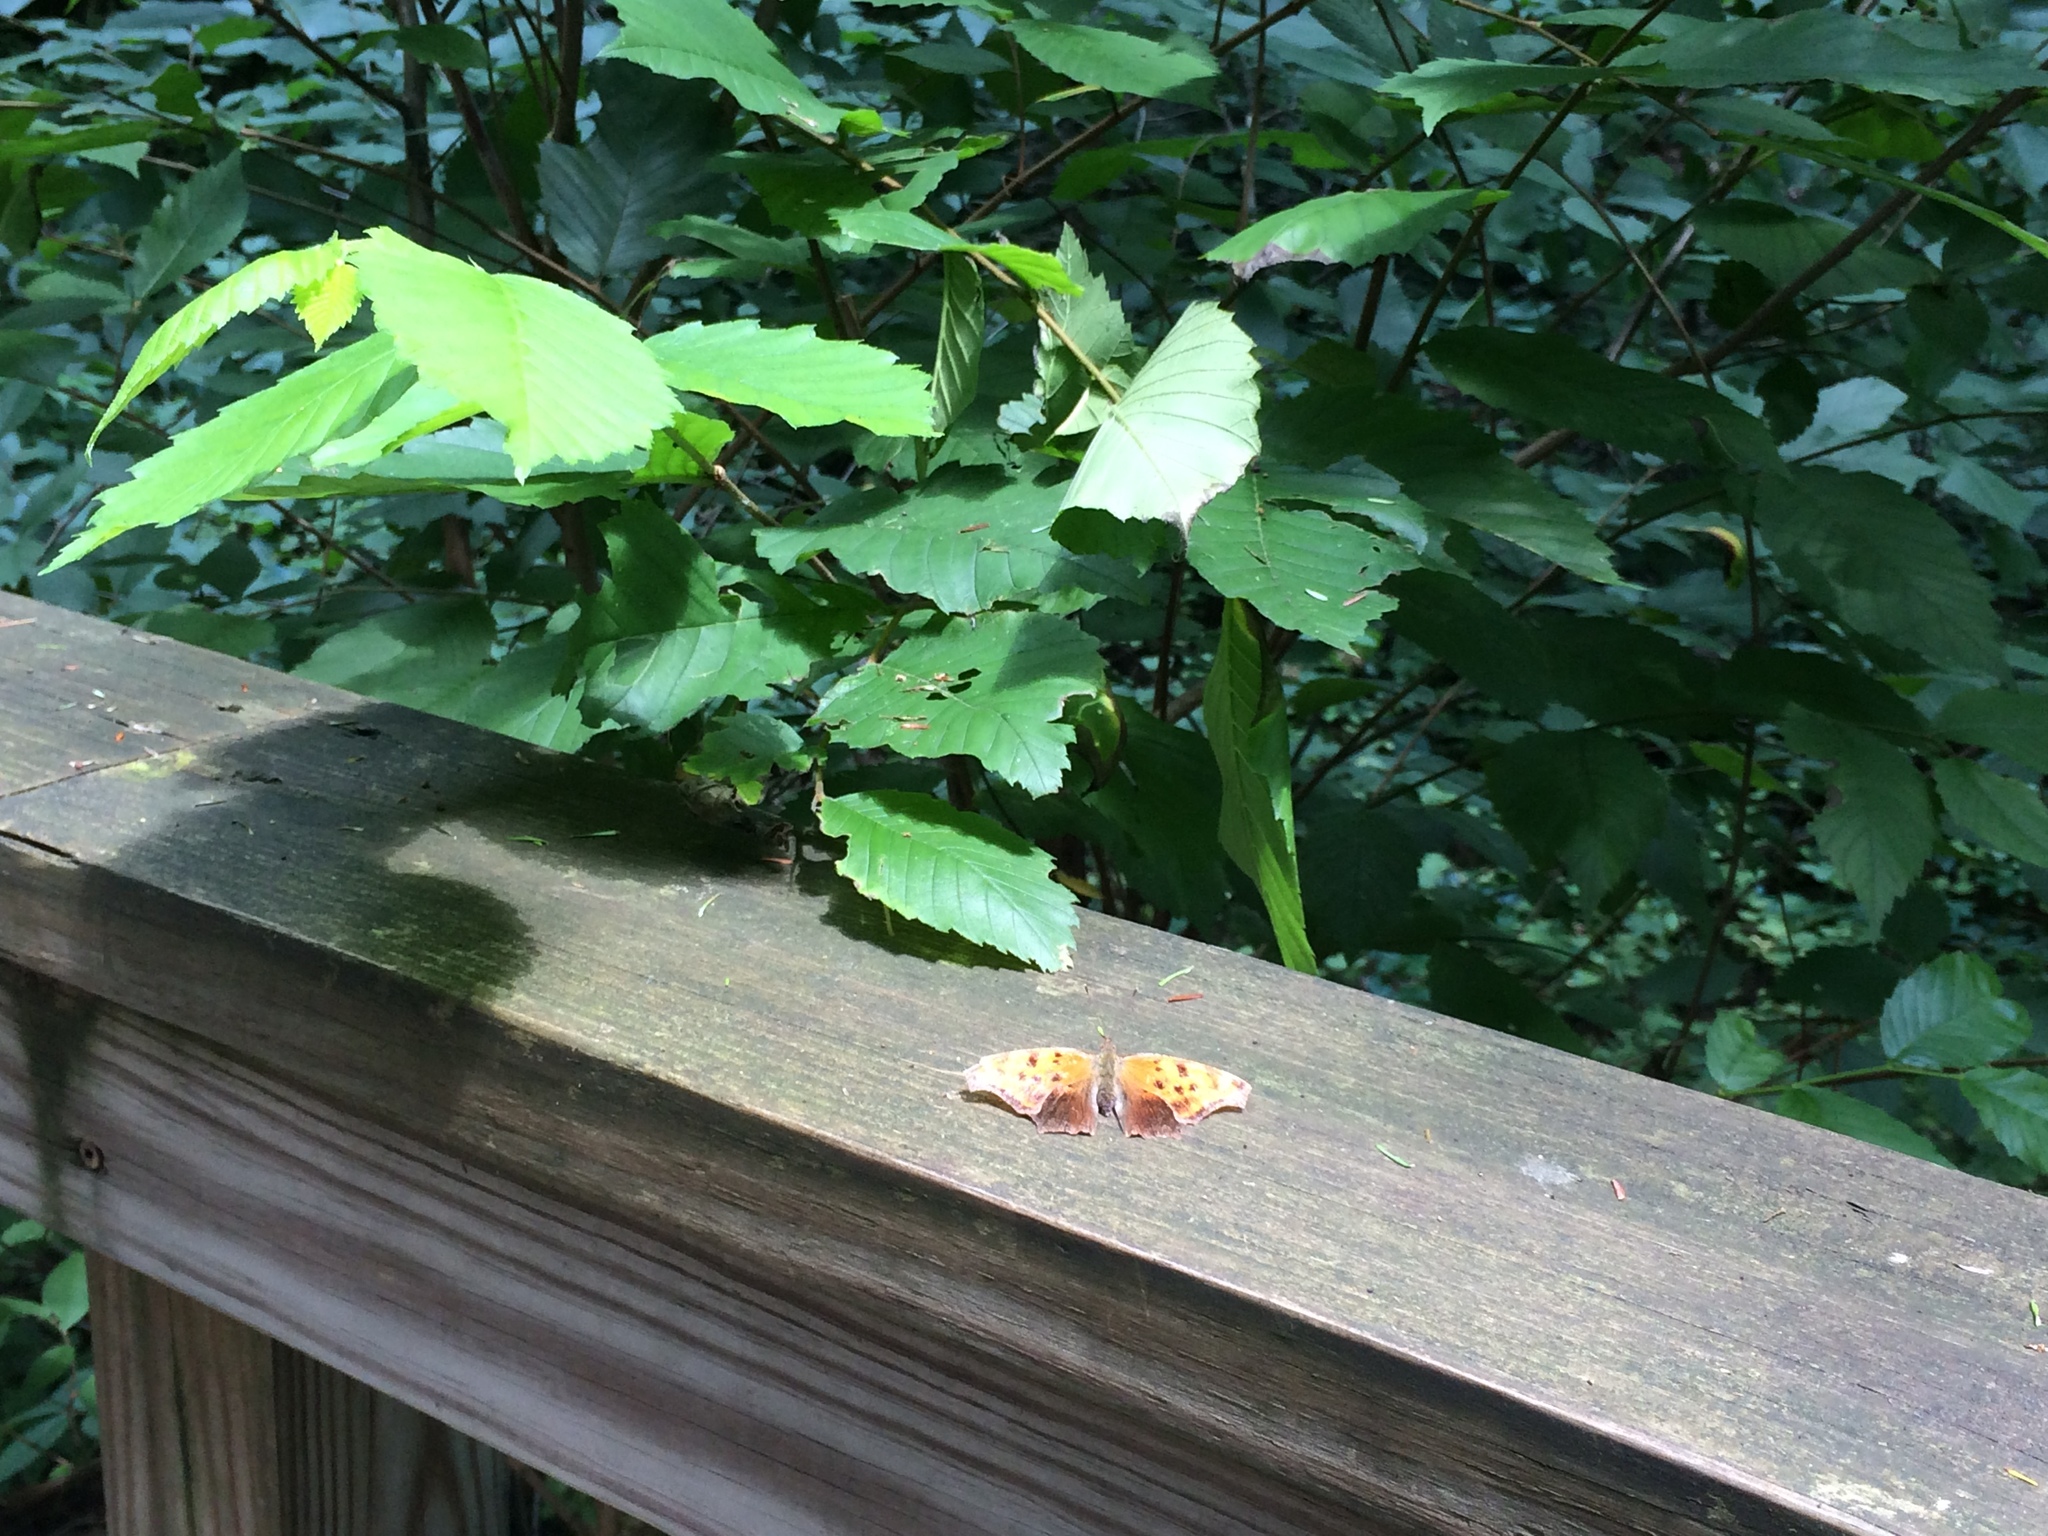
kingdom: Animalia
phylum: Arthropoda
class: Insecta
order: Lepidoptera
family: Nymphalidae
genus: Polygonia
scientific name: Polygonia comma
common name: Eastern comma
